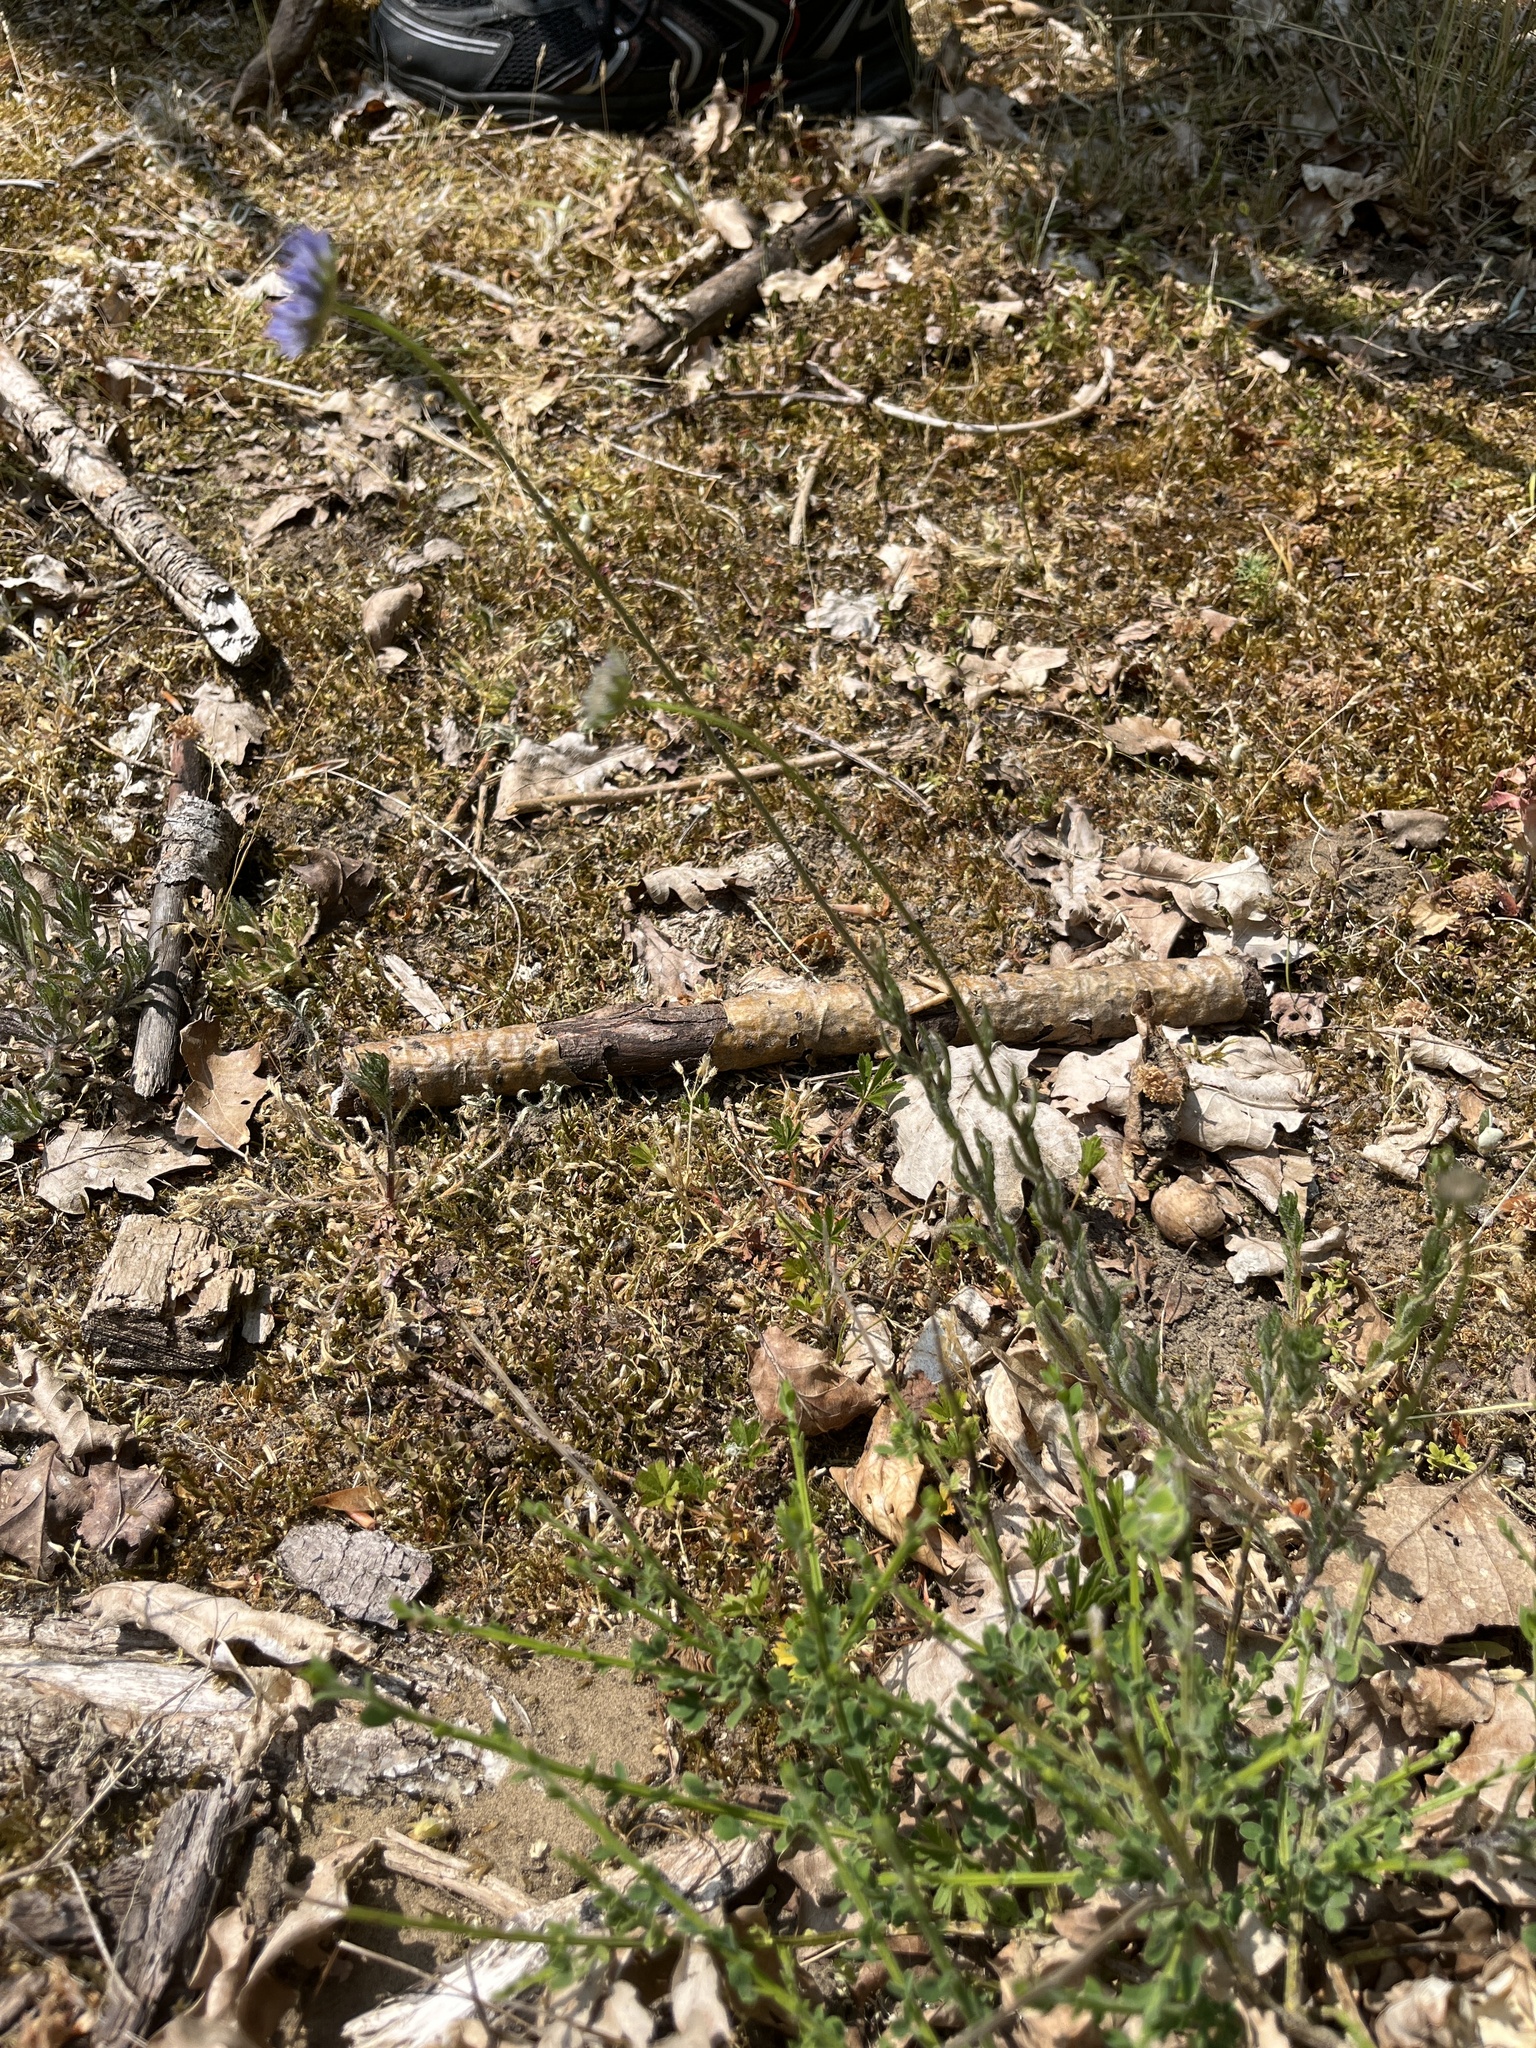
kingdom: Plantae
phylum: Tracheophyta
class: Magnoliopsida
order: Asterales
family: Campanulaceae
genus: Jasione
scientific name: Jasione montana
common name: Sheep's-bit
